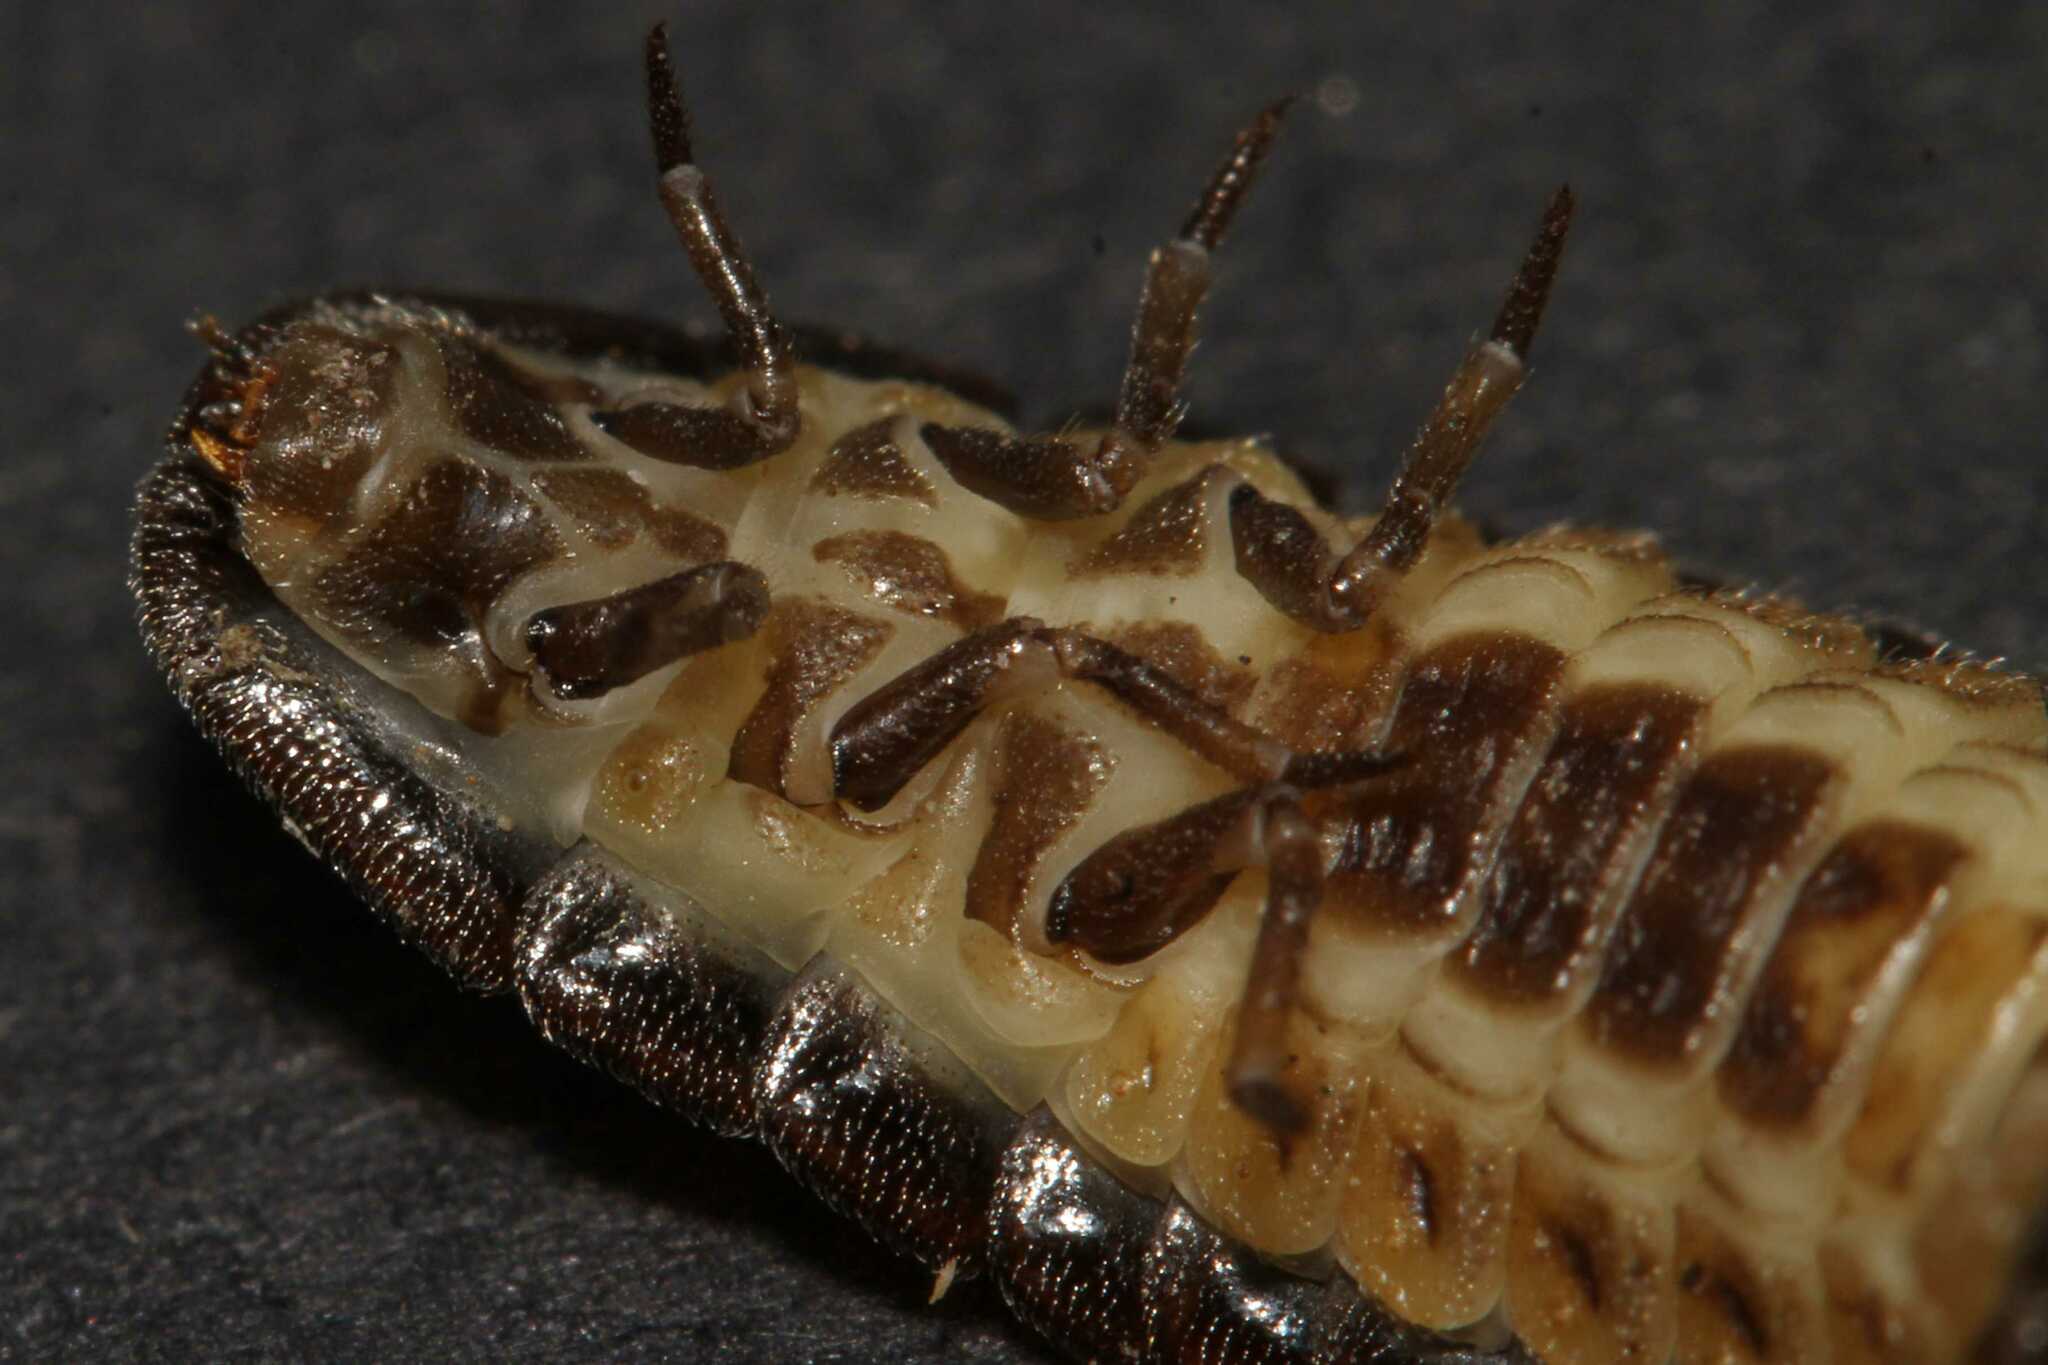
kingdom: Animalia
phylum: Arthropoda
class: Insecta
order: Coleoptera
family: Lampyridae
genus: Lamprohiza
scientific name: Lamprohiza splendidula
